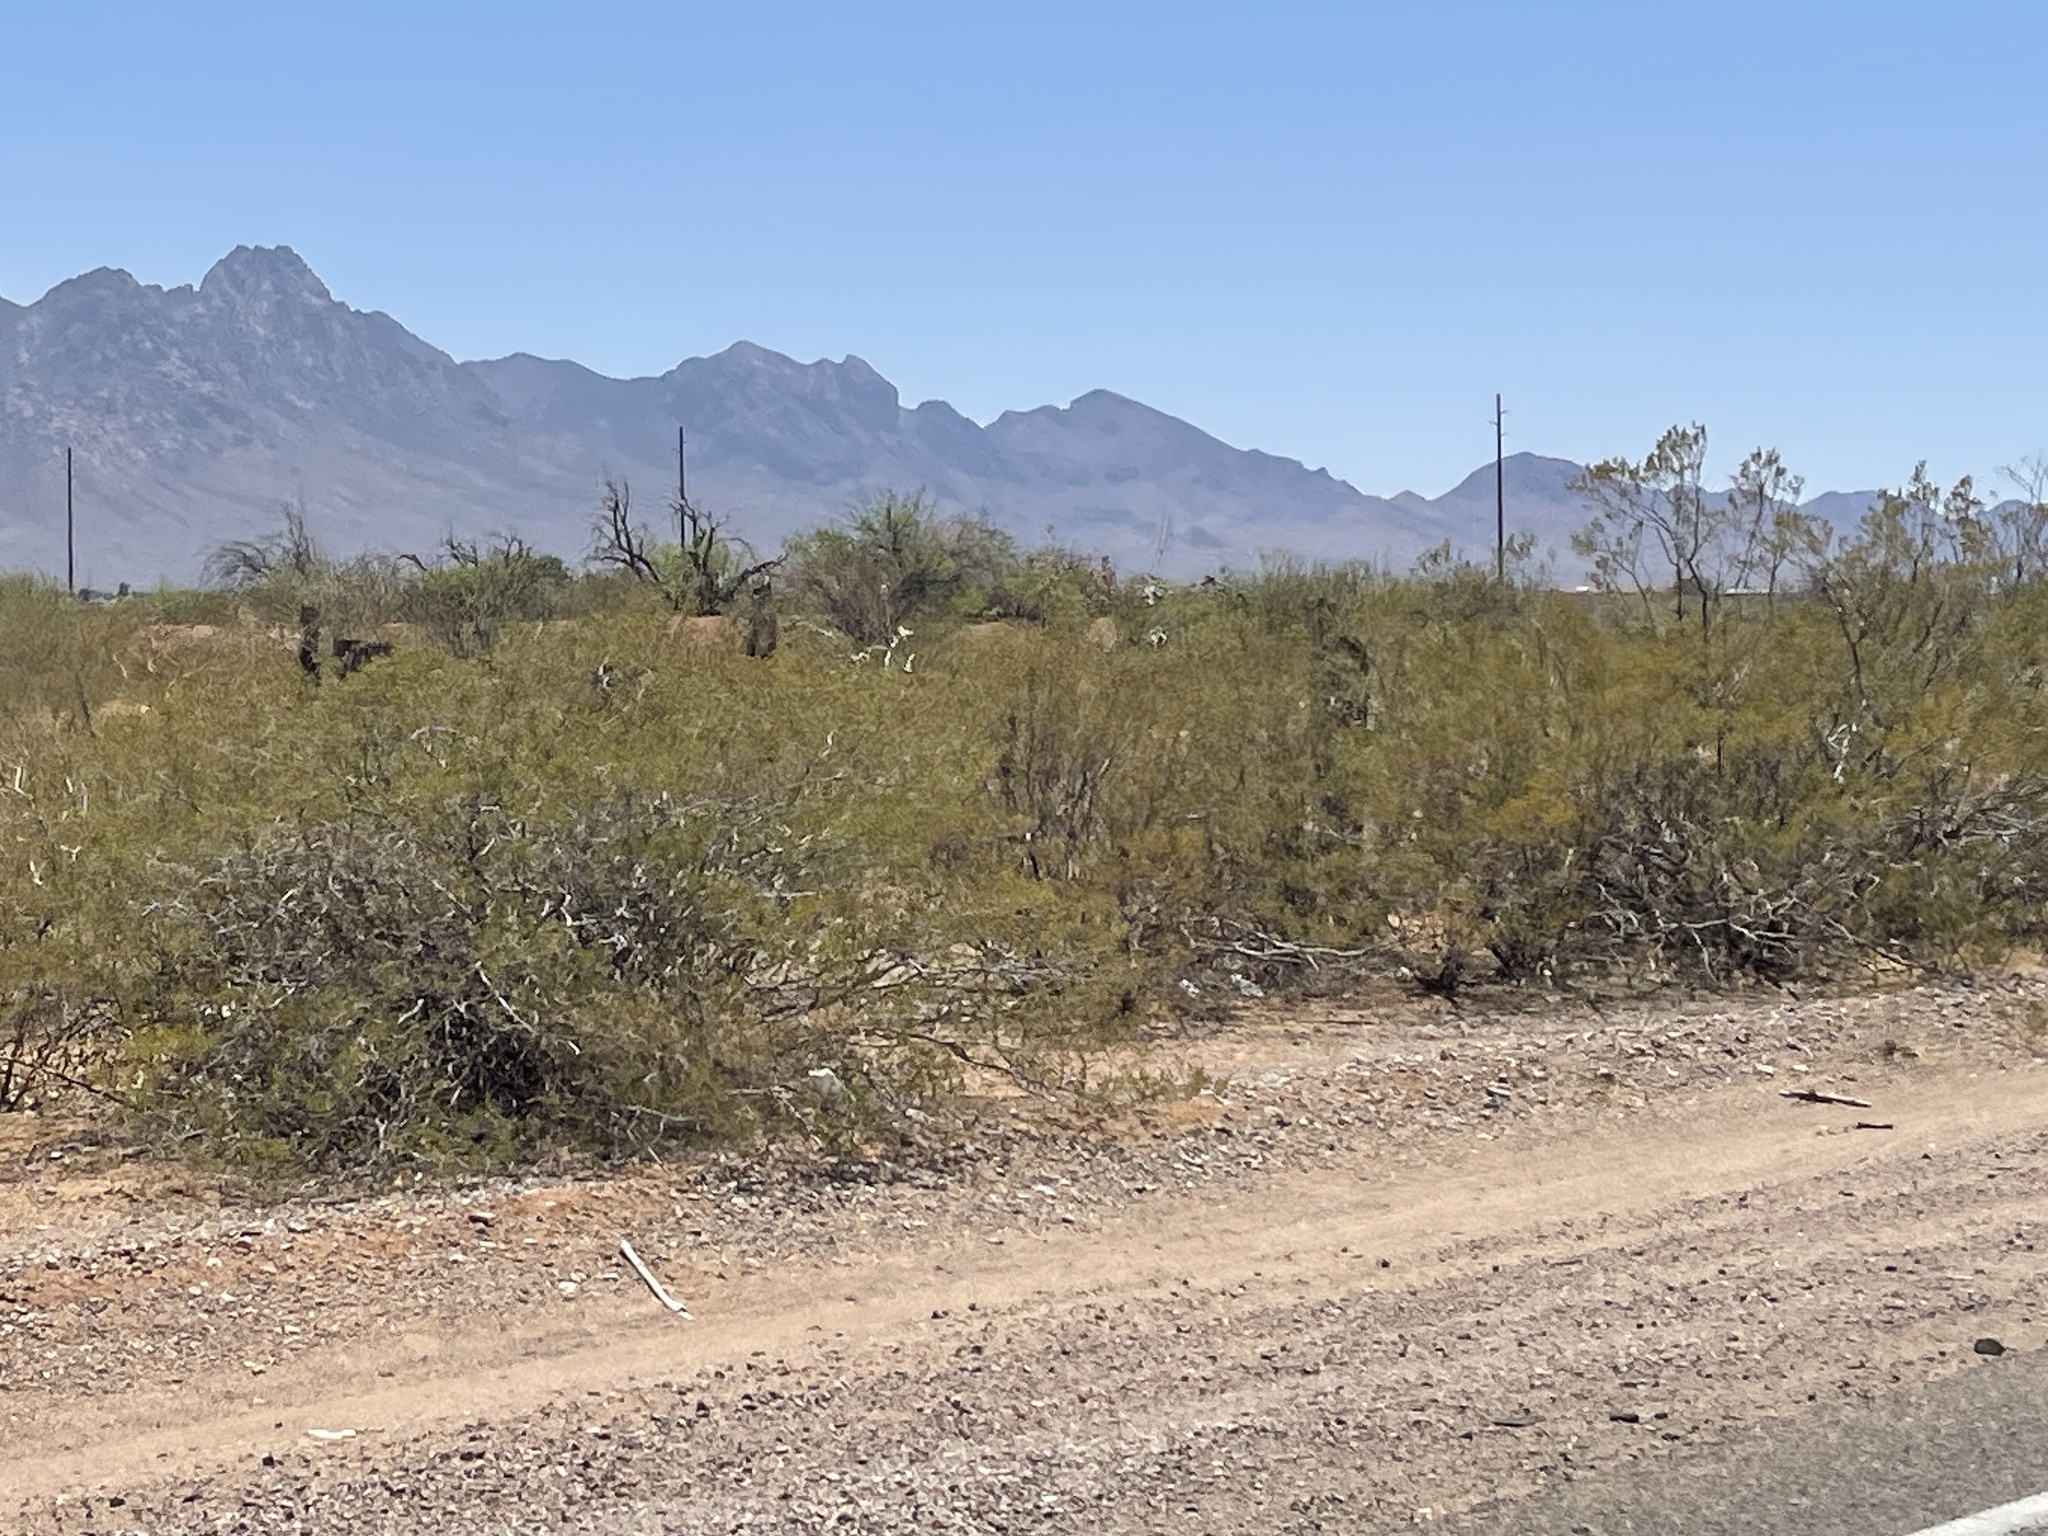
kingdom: Plantae
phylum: Tracheophyta
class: Magnoliopsida
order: Zygophyllales
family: Zygophyllaceae
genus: Larrea
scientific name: Larrea tridentata
